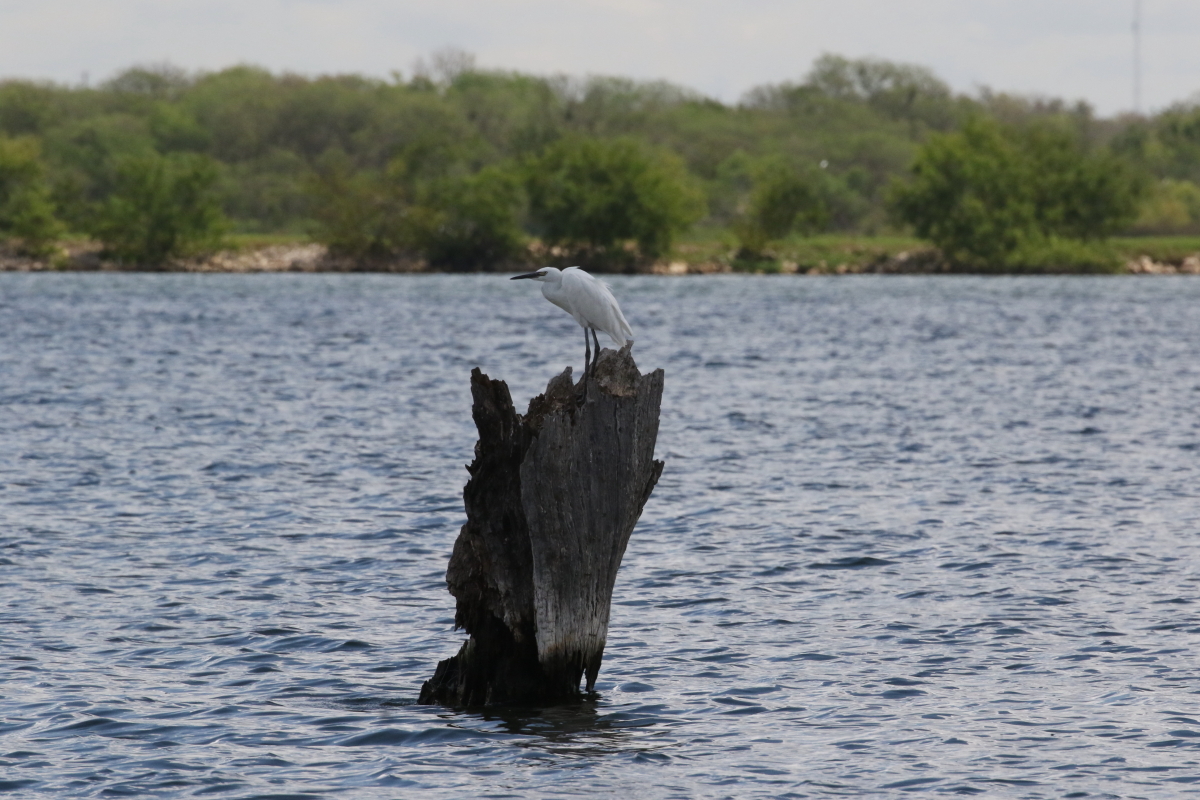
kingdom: Animalia
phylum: Chordata
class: Aves
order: Pelecaniformes
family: Ardeidae
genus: Egretta
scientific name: Egretta rufescens
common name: Reddish egret
